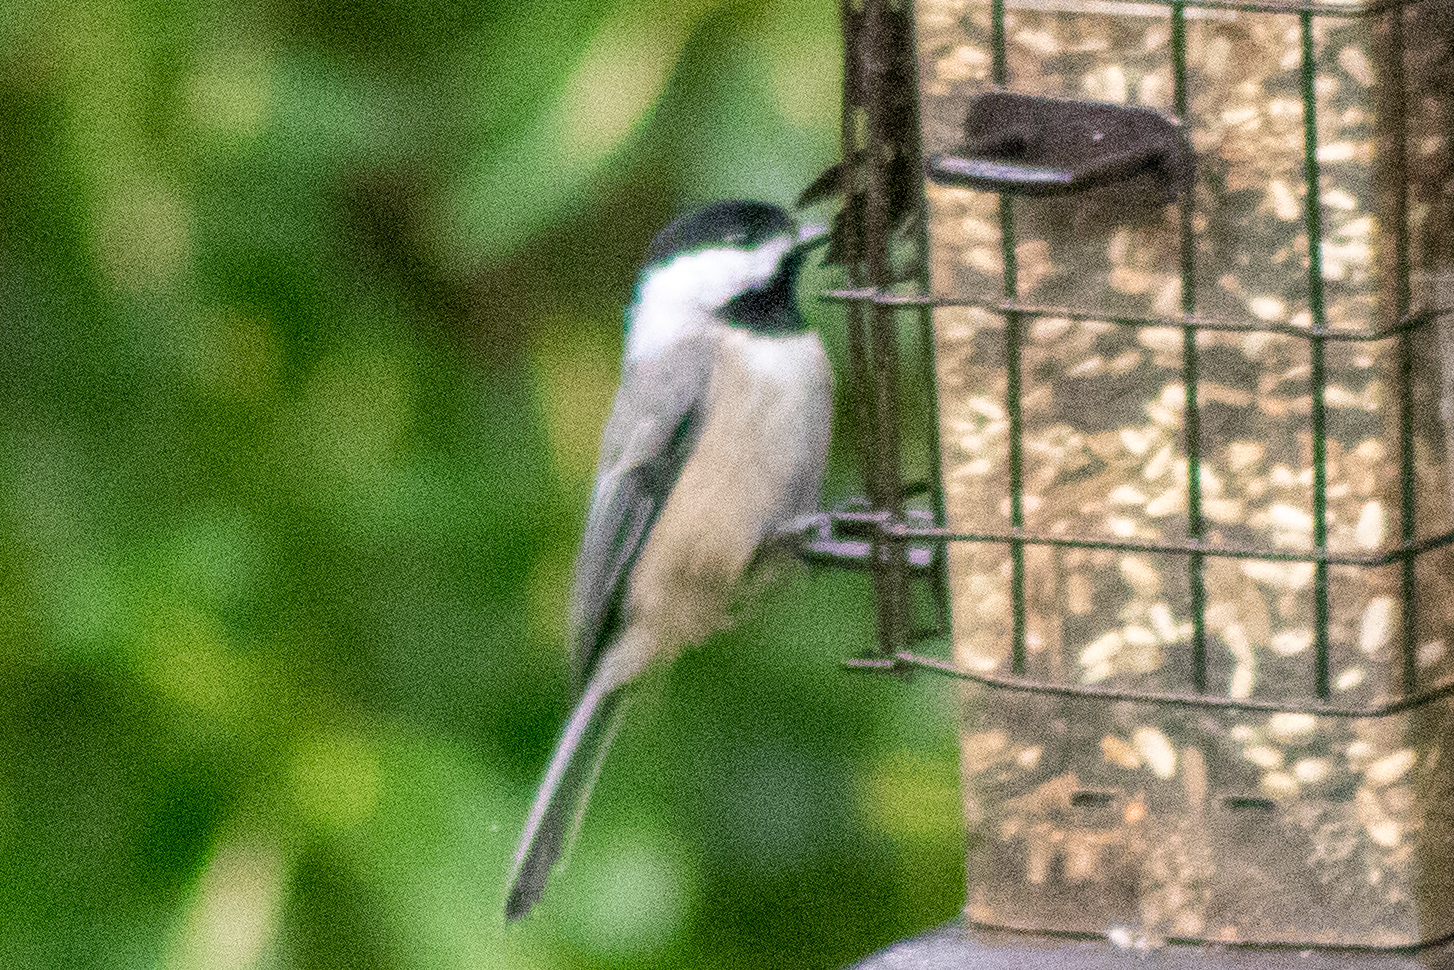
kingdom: Animalia
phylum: Chordata
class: Aves
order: Passeriformes
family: Paridae
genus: Poecile
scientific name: Poecile carolinensis
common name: Carolina chickadee
